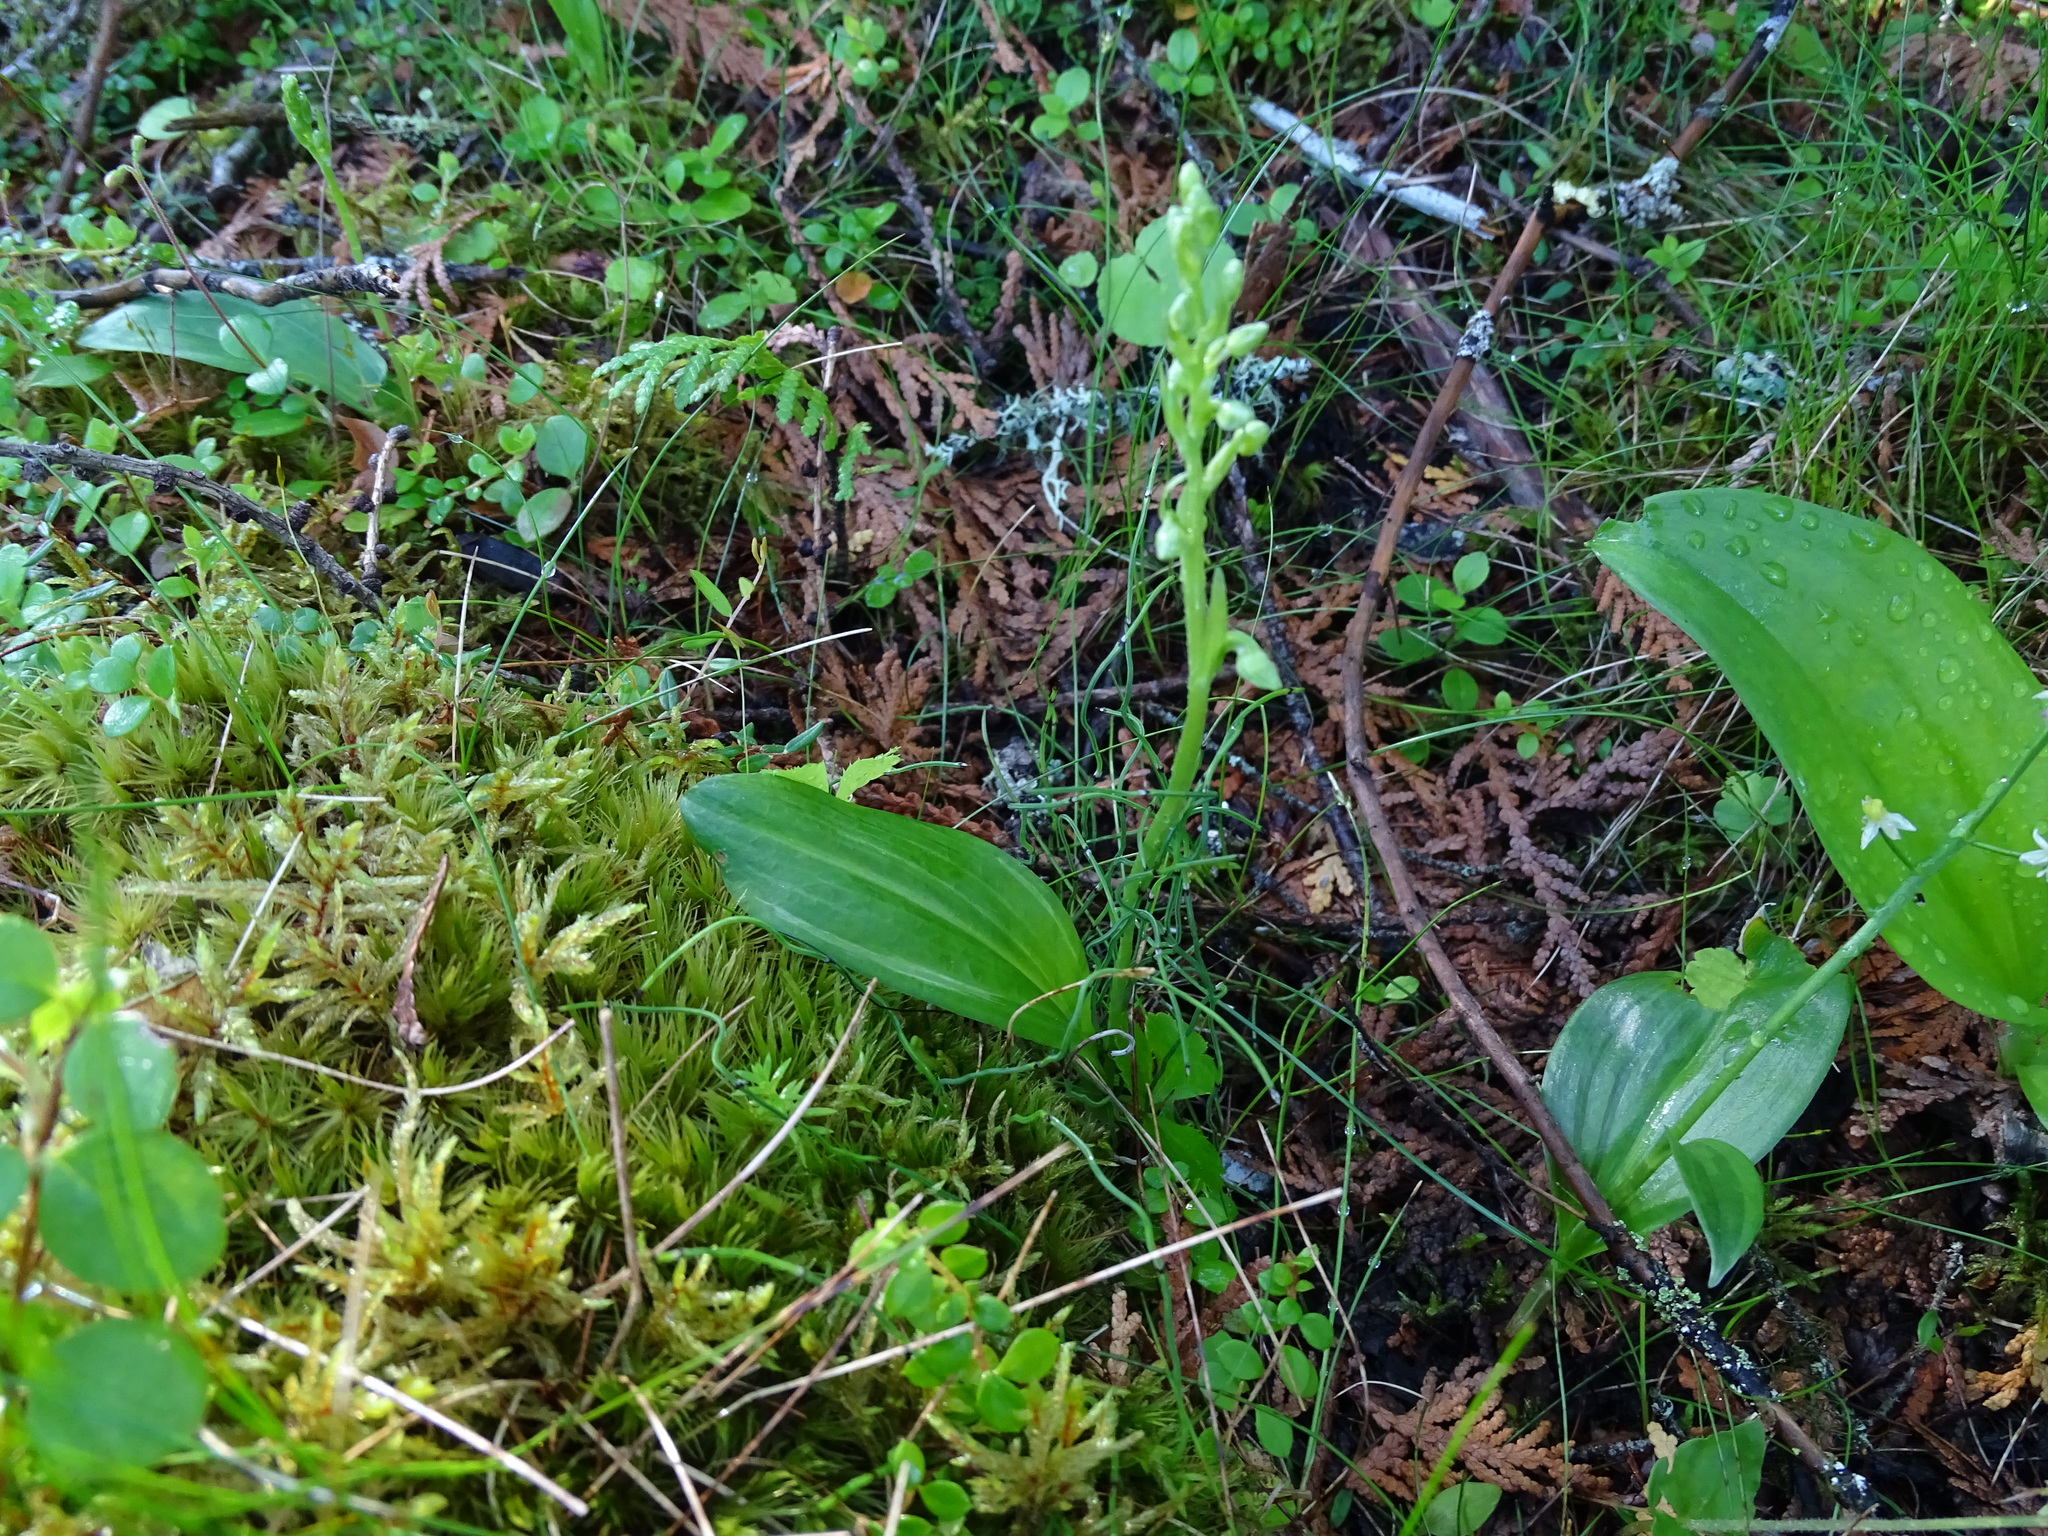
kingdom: Plantae
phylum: Tracheophyta
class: Liliopsida
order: Asparagales
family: Orchidaceae
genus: Platanthera
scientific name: Platanthera obtusata
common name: Blunt bog orchid
